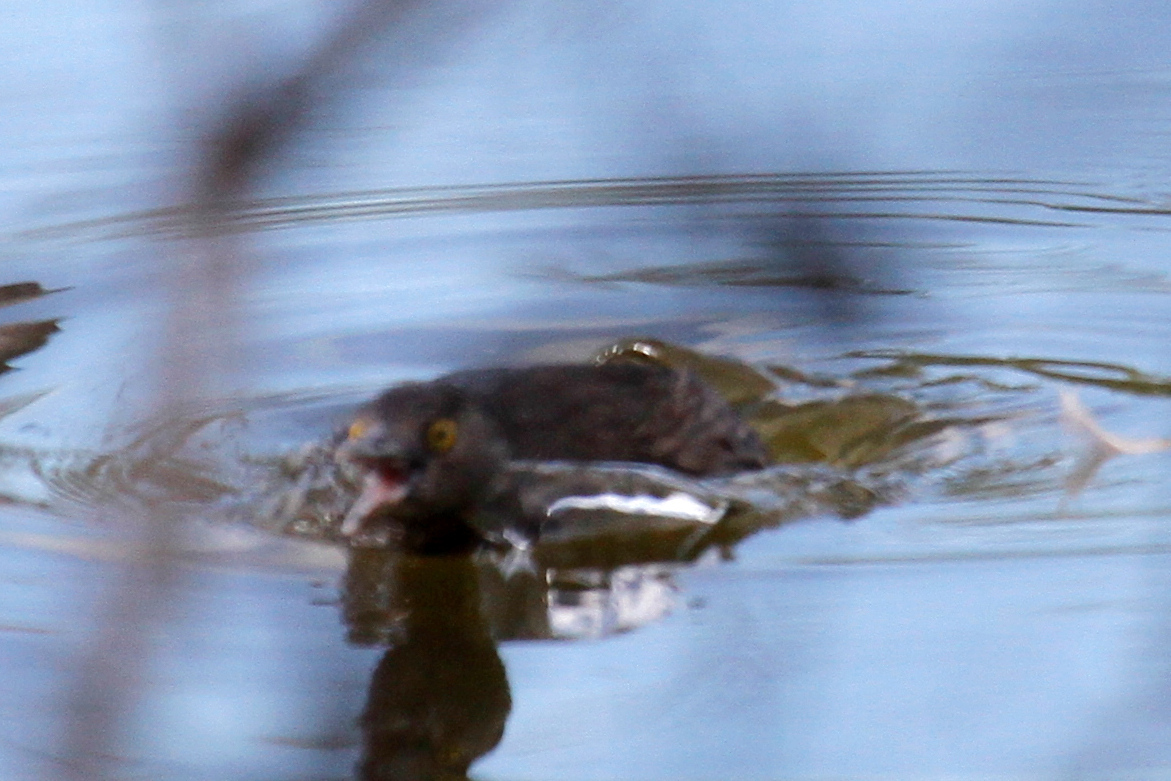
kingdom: Animalia
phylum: Chordata
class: Aves
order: Podicipediformes
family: Podicipedidae
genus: Tachybaptus
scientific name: Tachybaptus dominicus
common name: Least grebe
